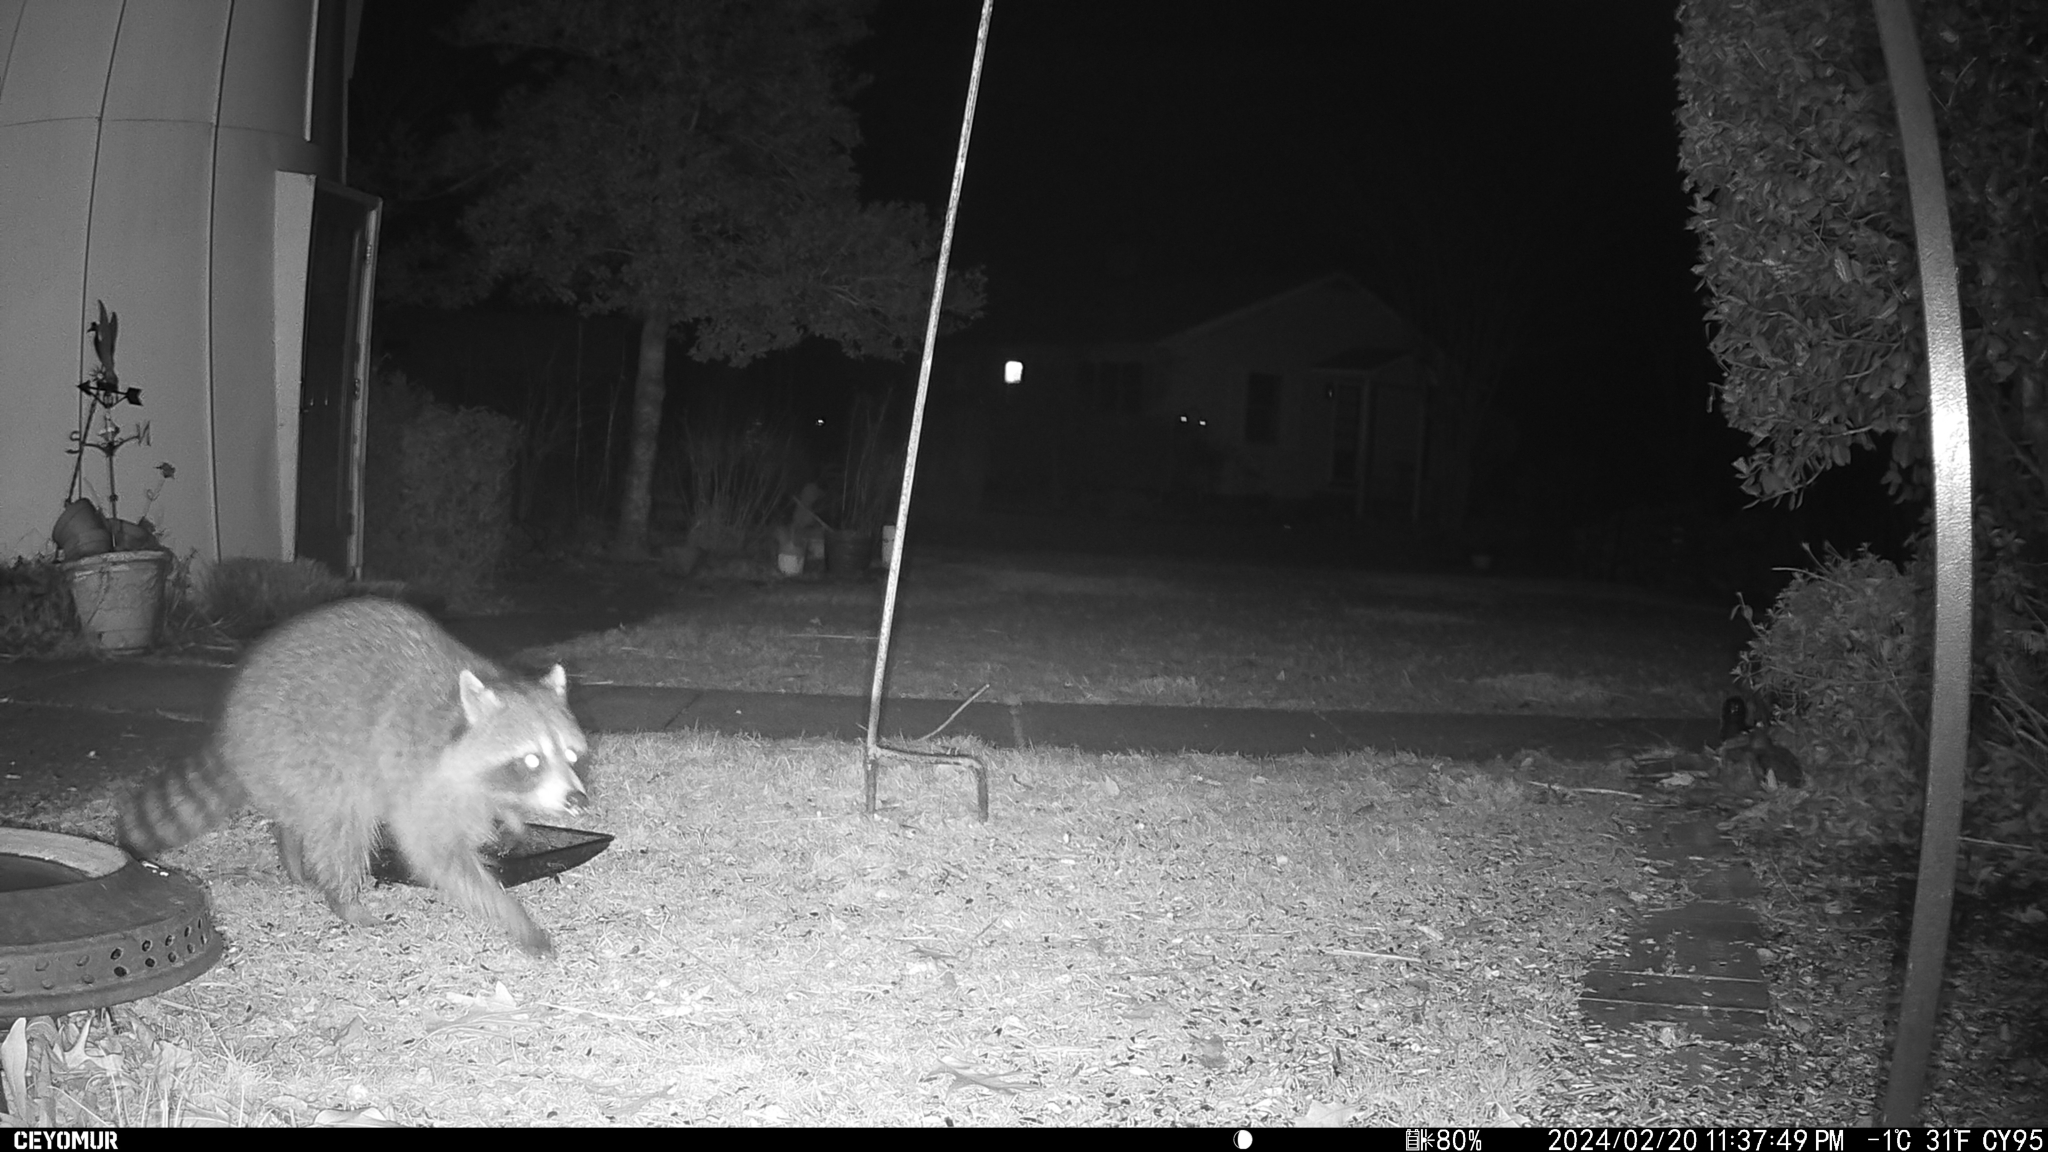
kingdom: Animalia
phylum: Chordata
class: Mammalia
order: Carnivora
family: Procyonidae
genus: Procyon
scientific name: Procyon lotor
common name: Raccoon
